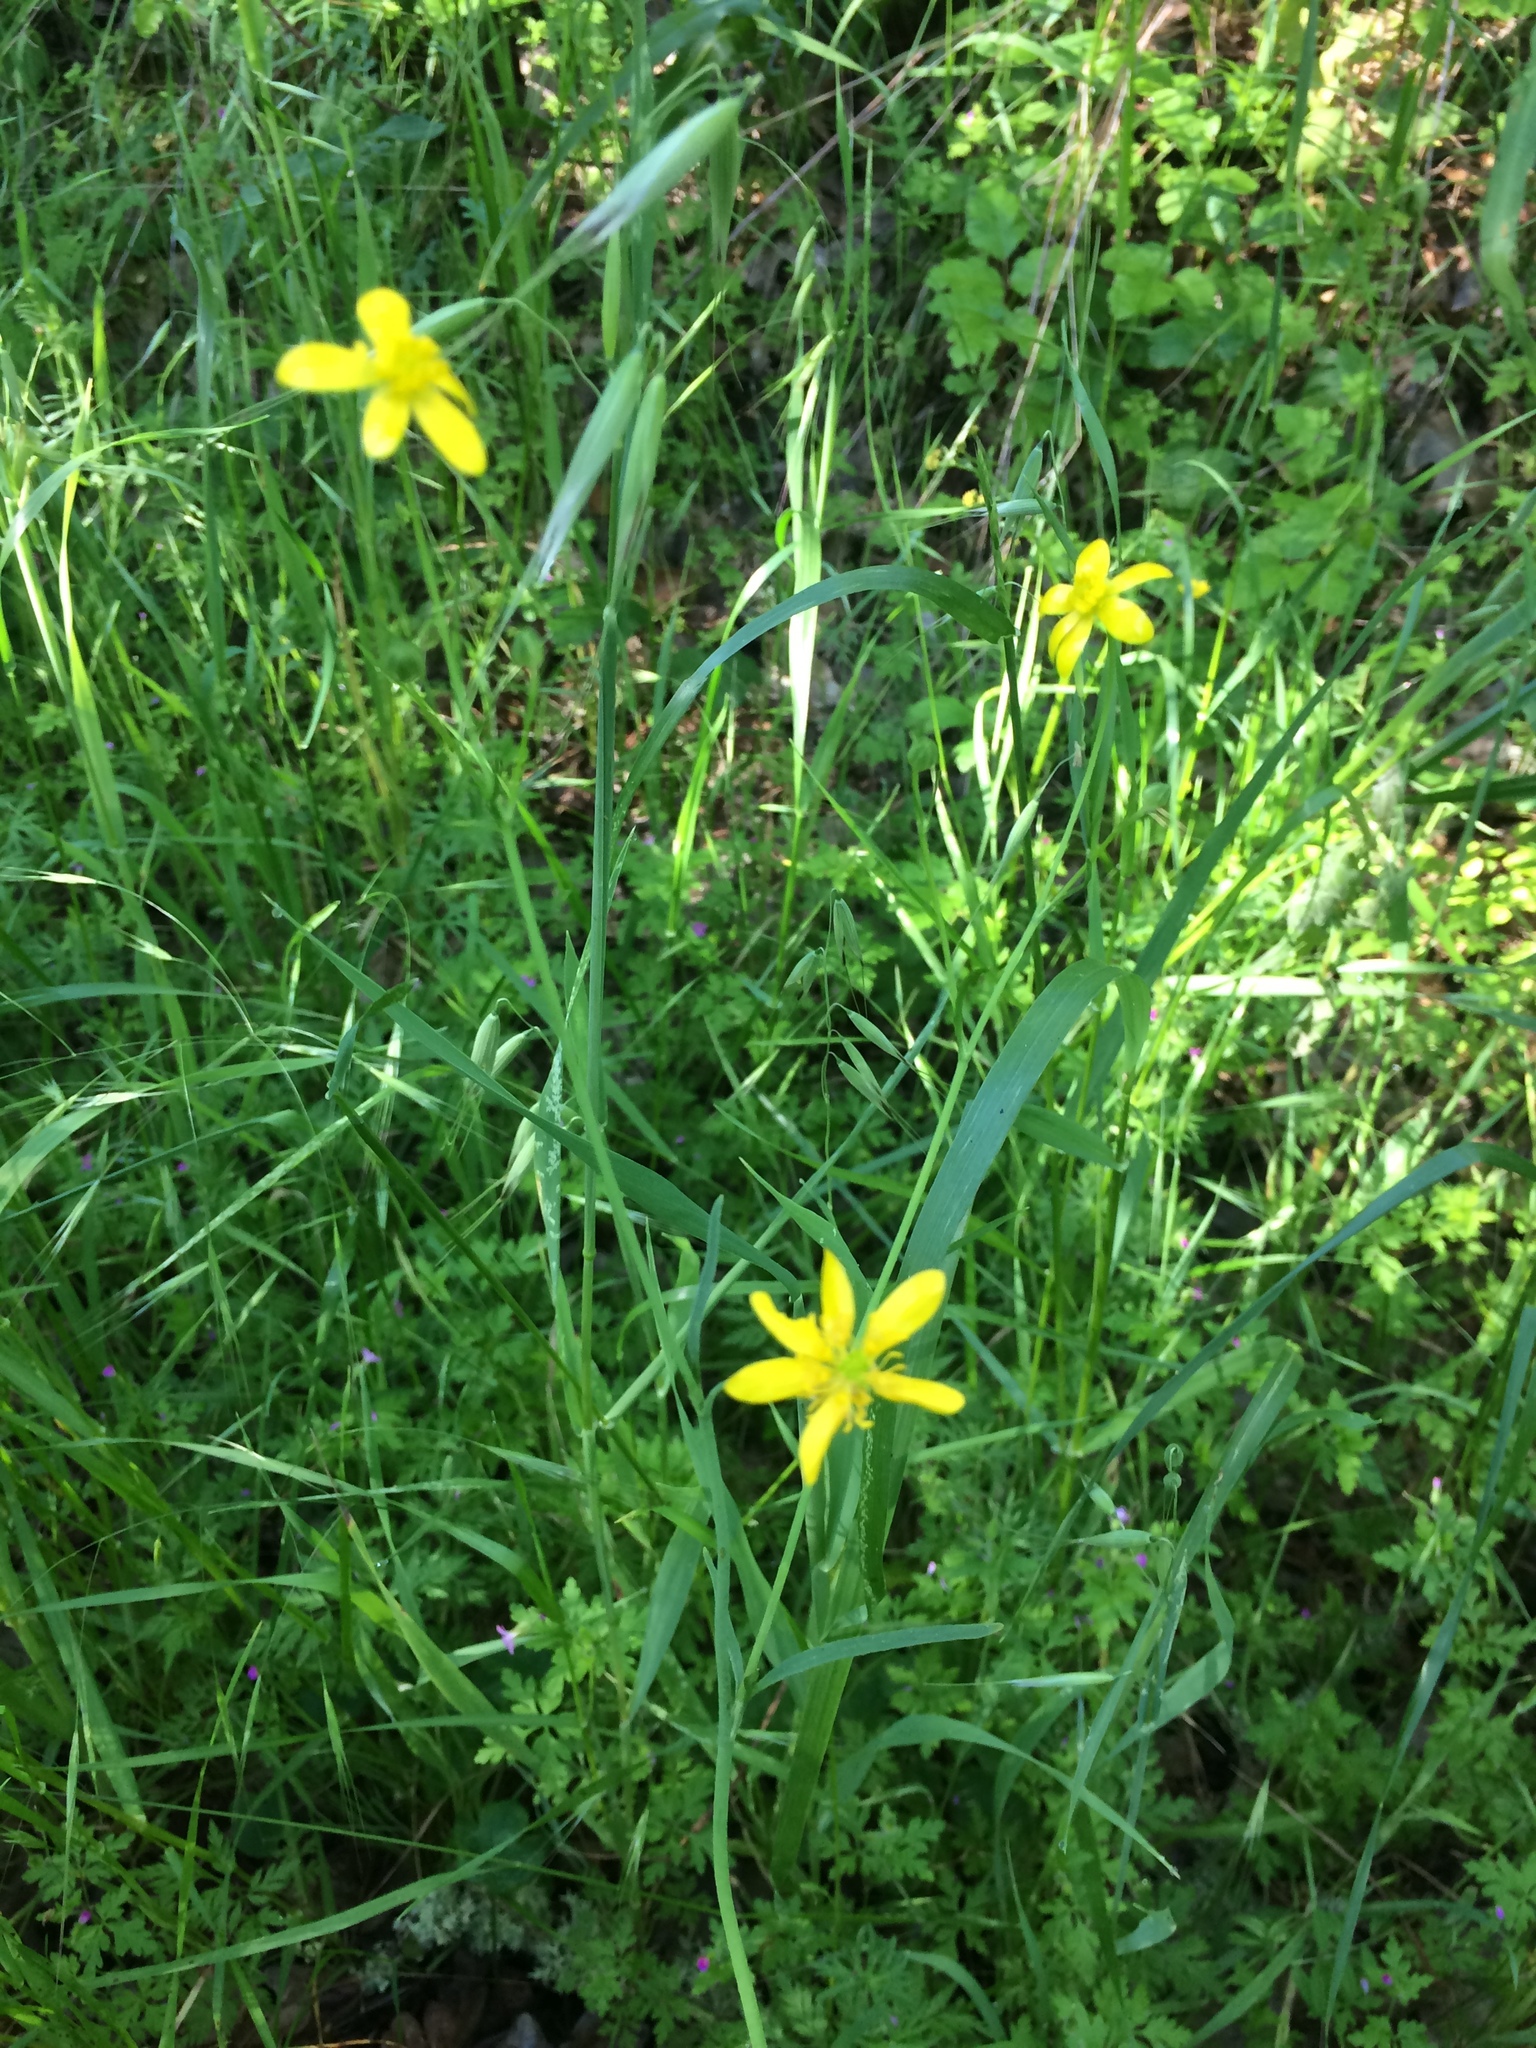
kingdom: Plantae
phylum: Tracheophyta
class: Magnoliopsida
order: Ranunculales
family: Ranunculaceae
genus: Ranunculus
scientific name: Ranunculus occidentalis
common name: Western buttercup
